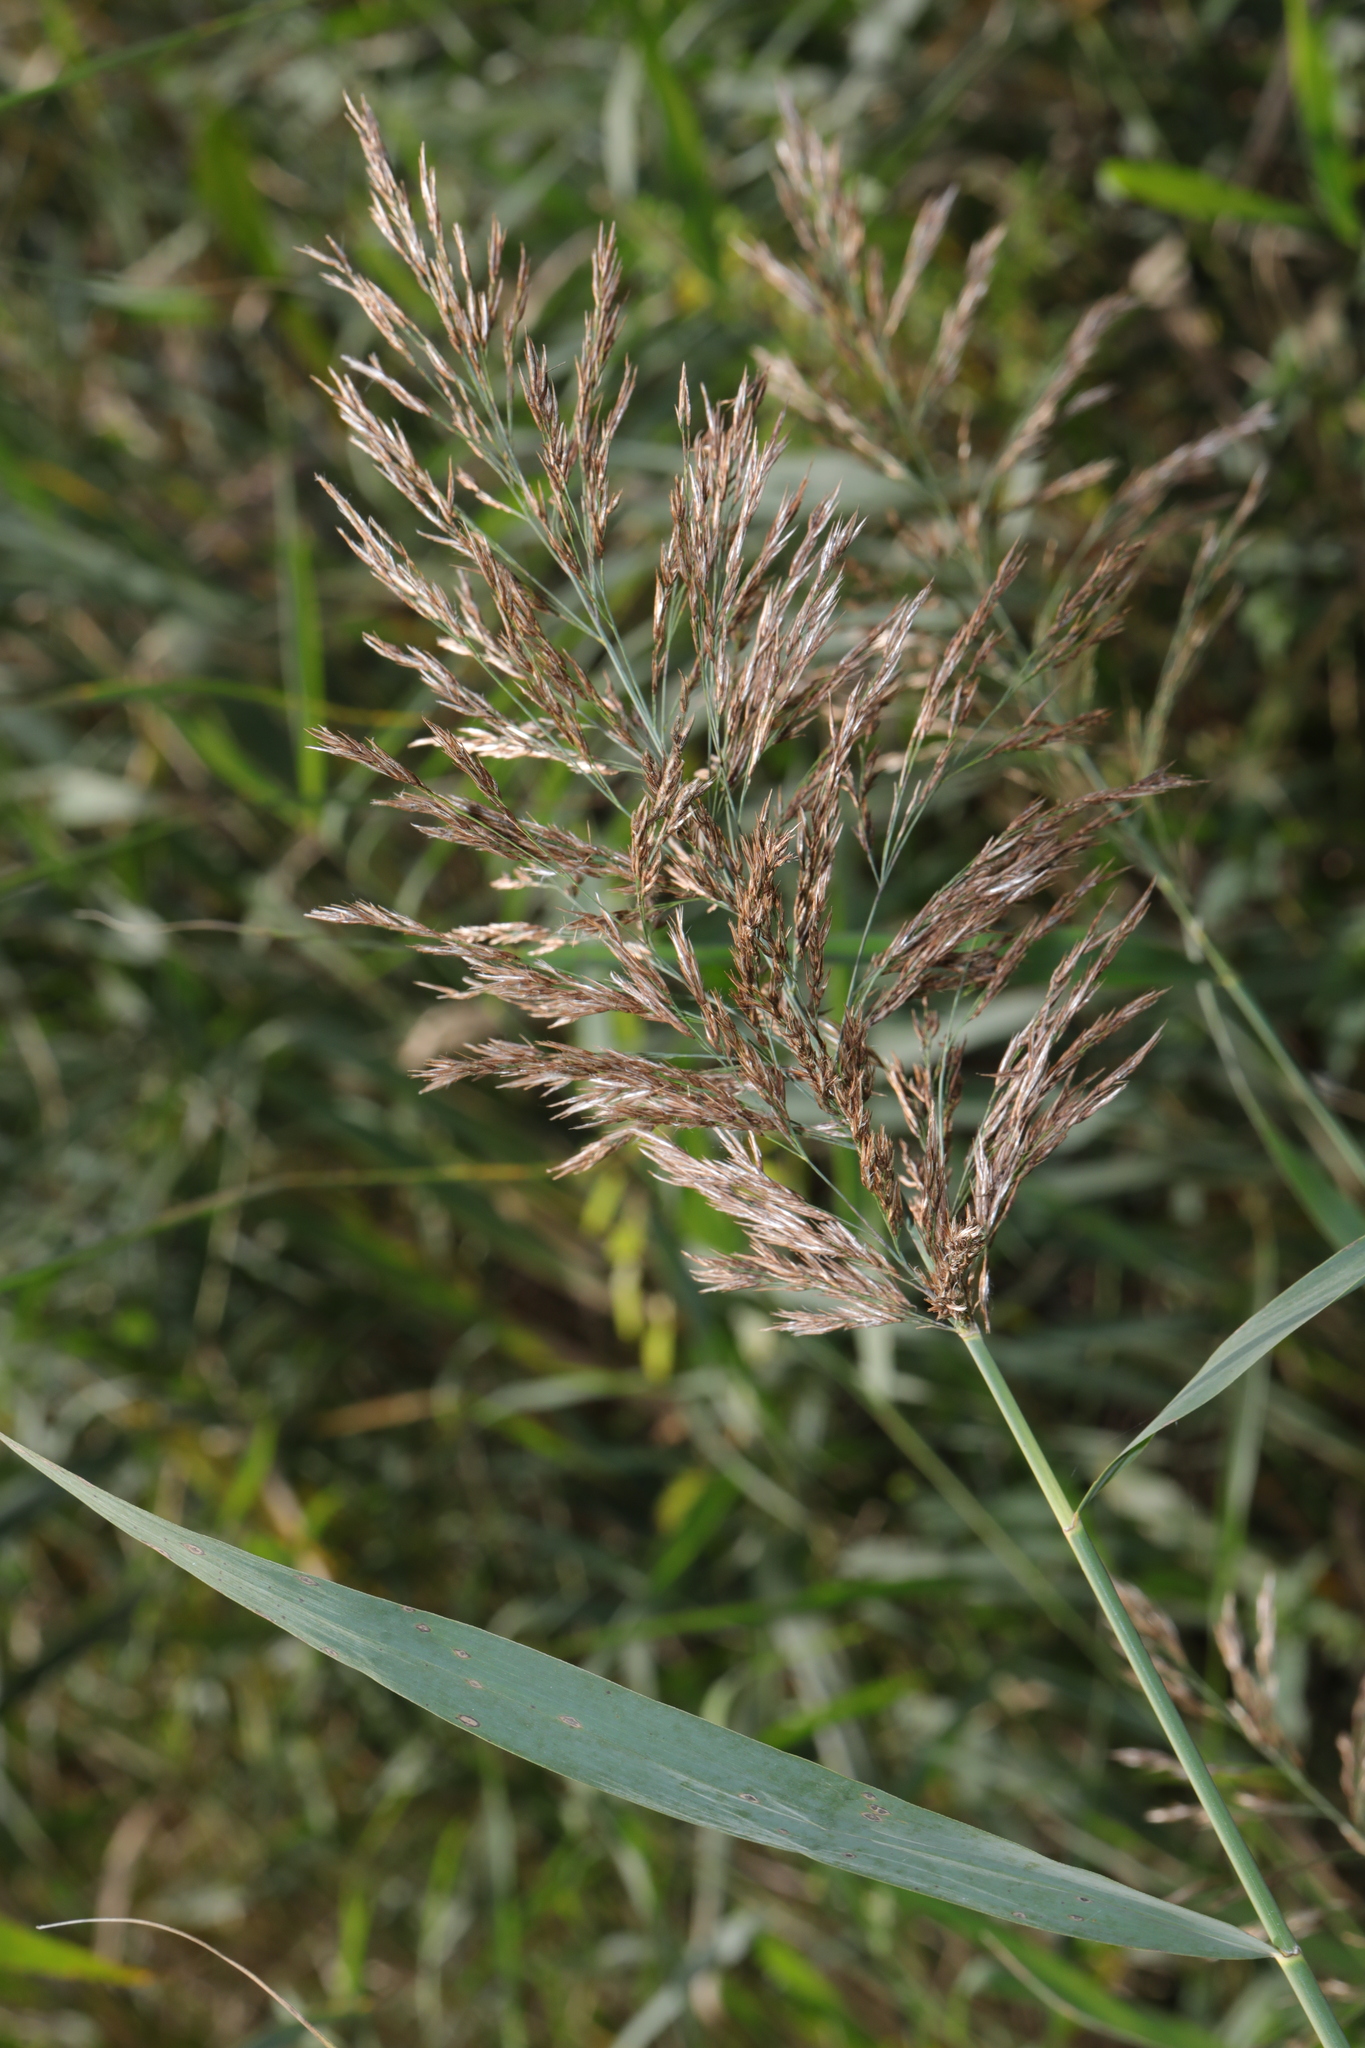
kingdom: Plantae
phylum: Tracheophyta
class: Liliopsida
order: Poales
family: Poaceae
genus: Phragmites
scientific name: Phragmites australis
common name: Common reed
